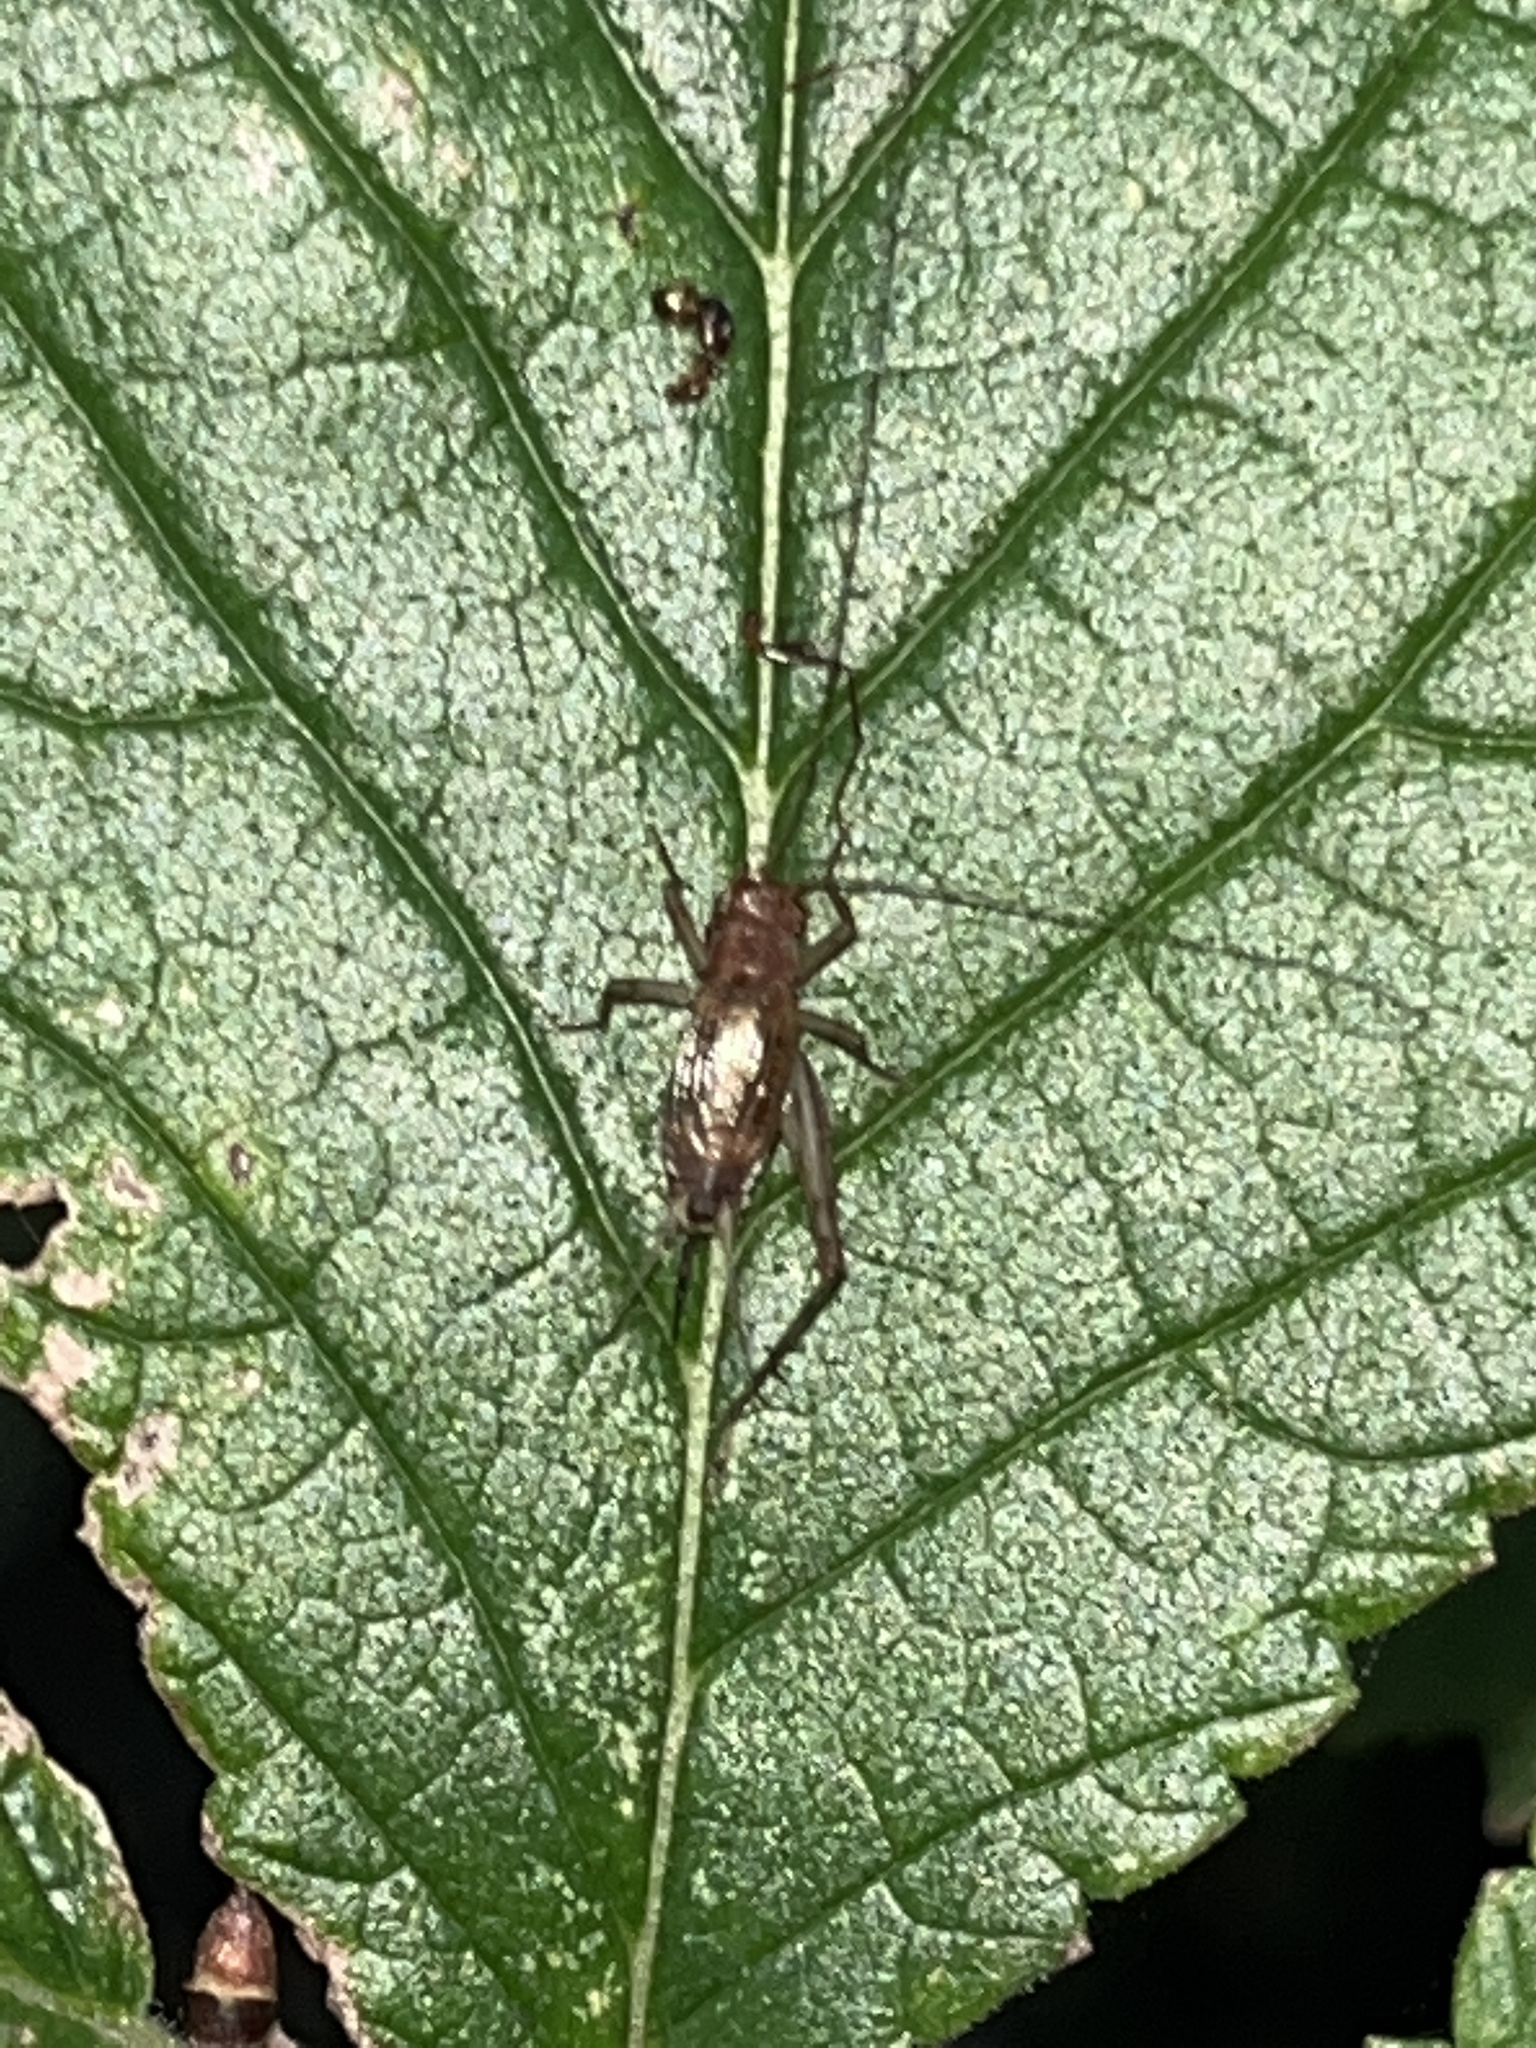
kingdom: Animalia
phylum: Arthropoda
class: Insecta
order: Orthoptera
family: Trigonidiidae
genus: Anaxipha
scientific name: Anaxipha exigua
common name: Say's bush cricket
